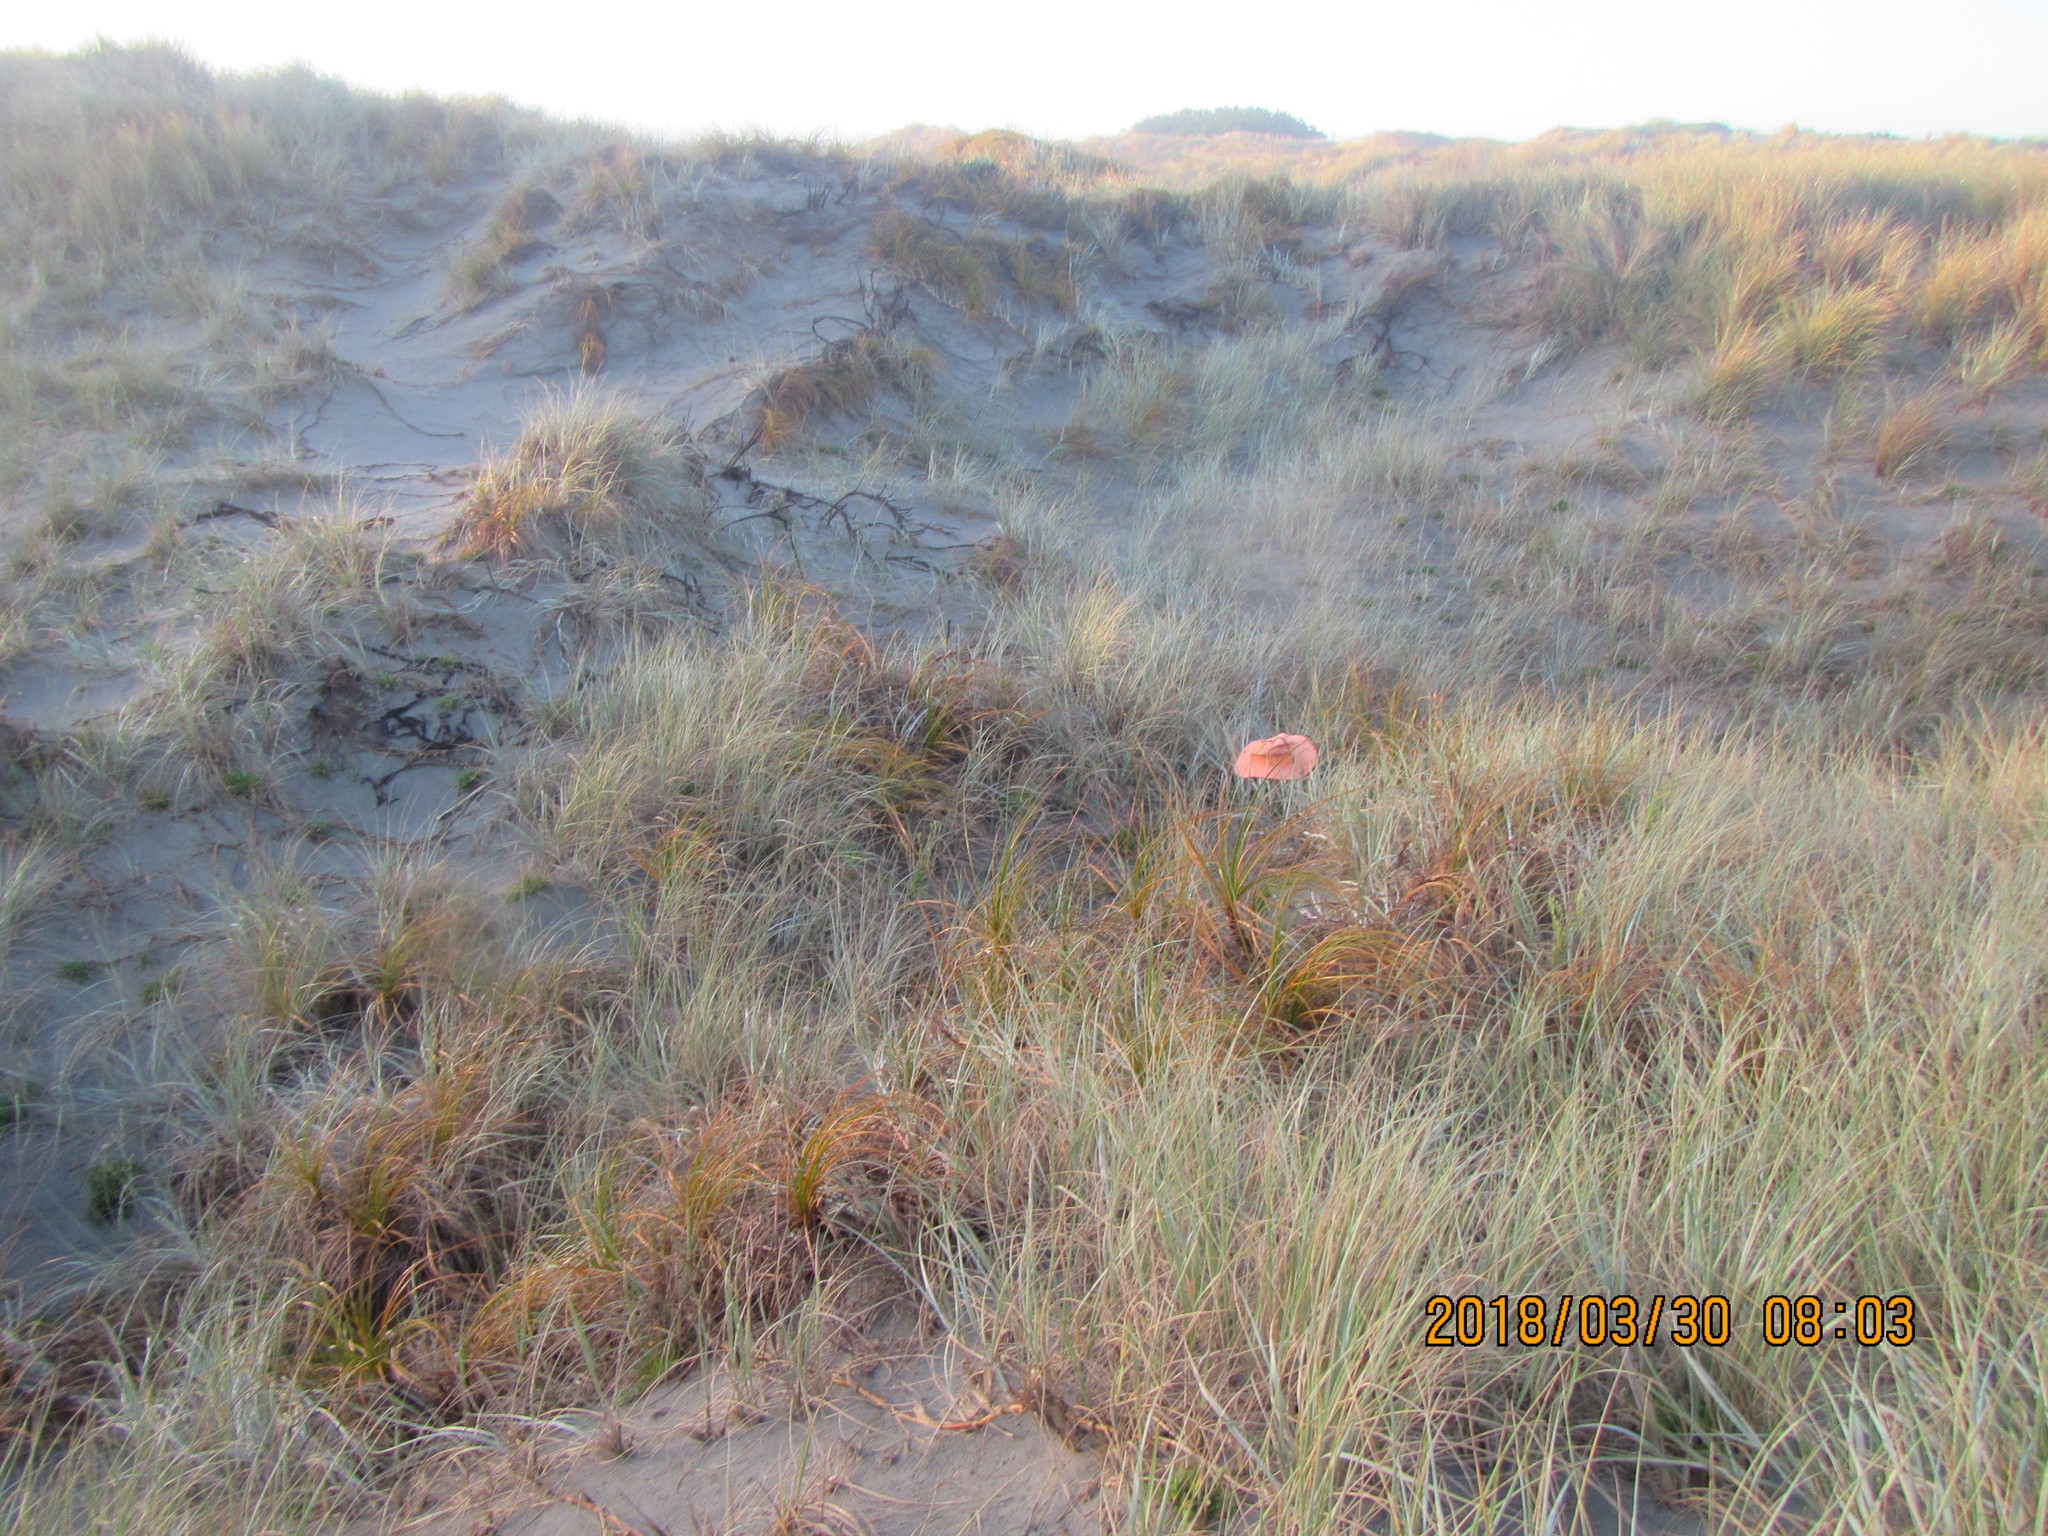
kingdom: Plantae
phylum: Tracheophyta
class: Liliopsida
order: Poales
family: Cyperaceae
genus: Ficinia
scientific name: Ficinia spiralis
